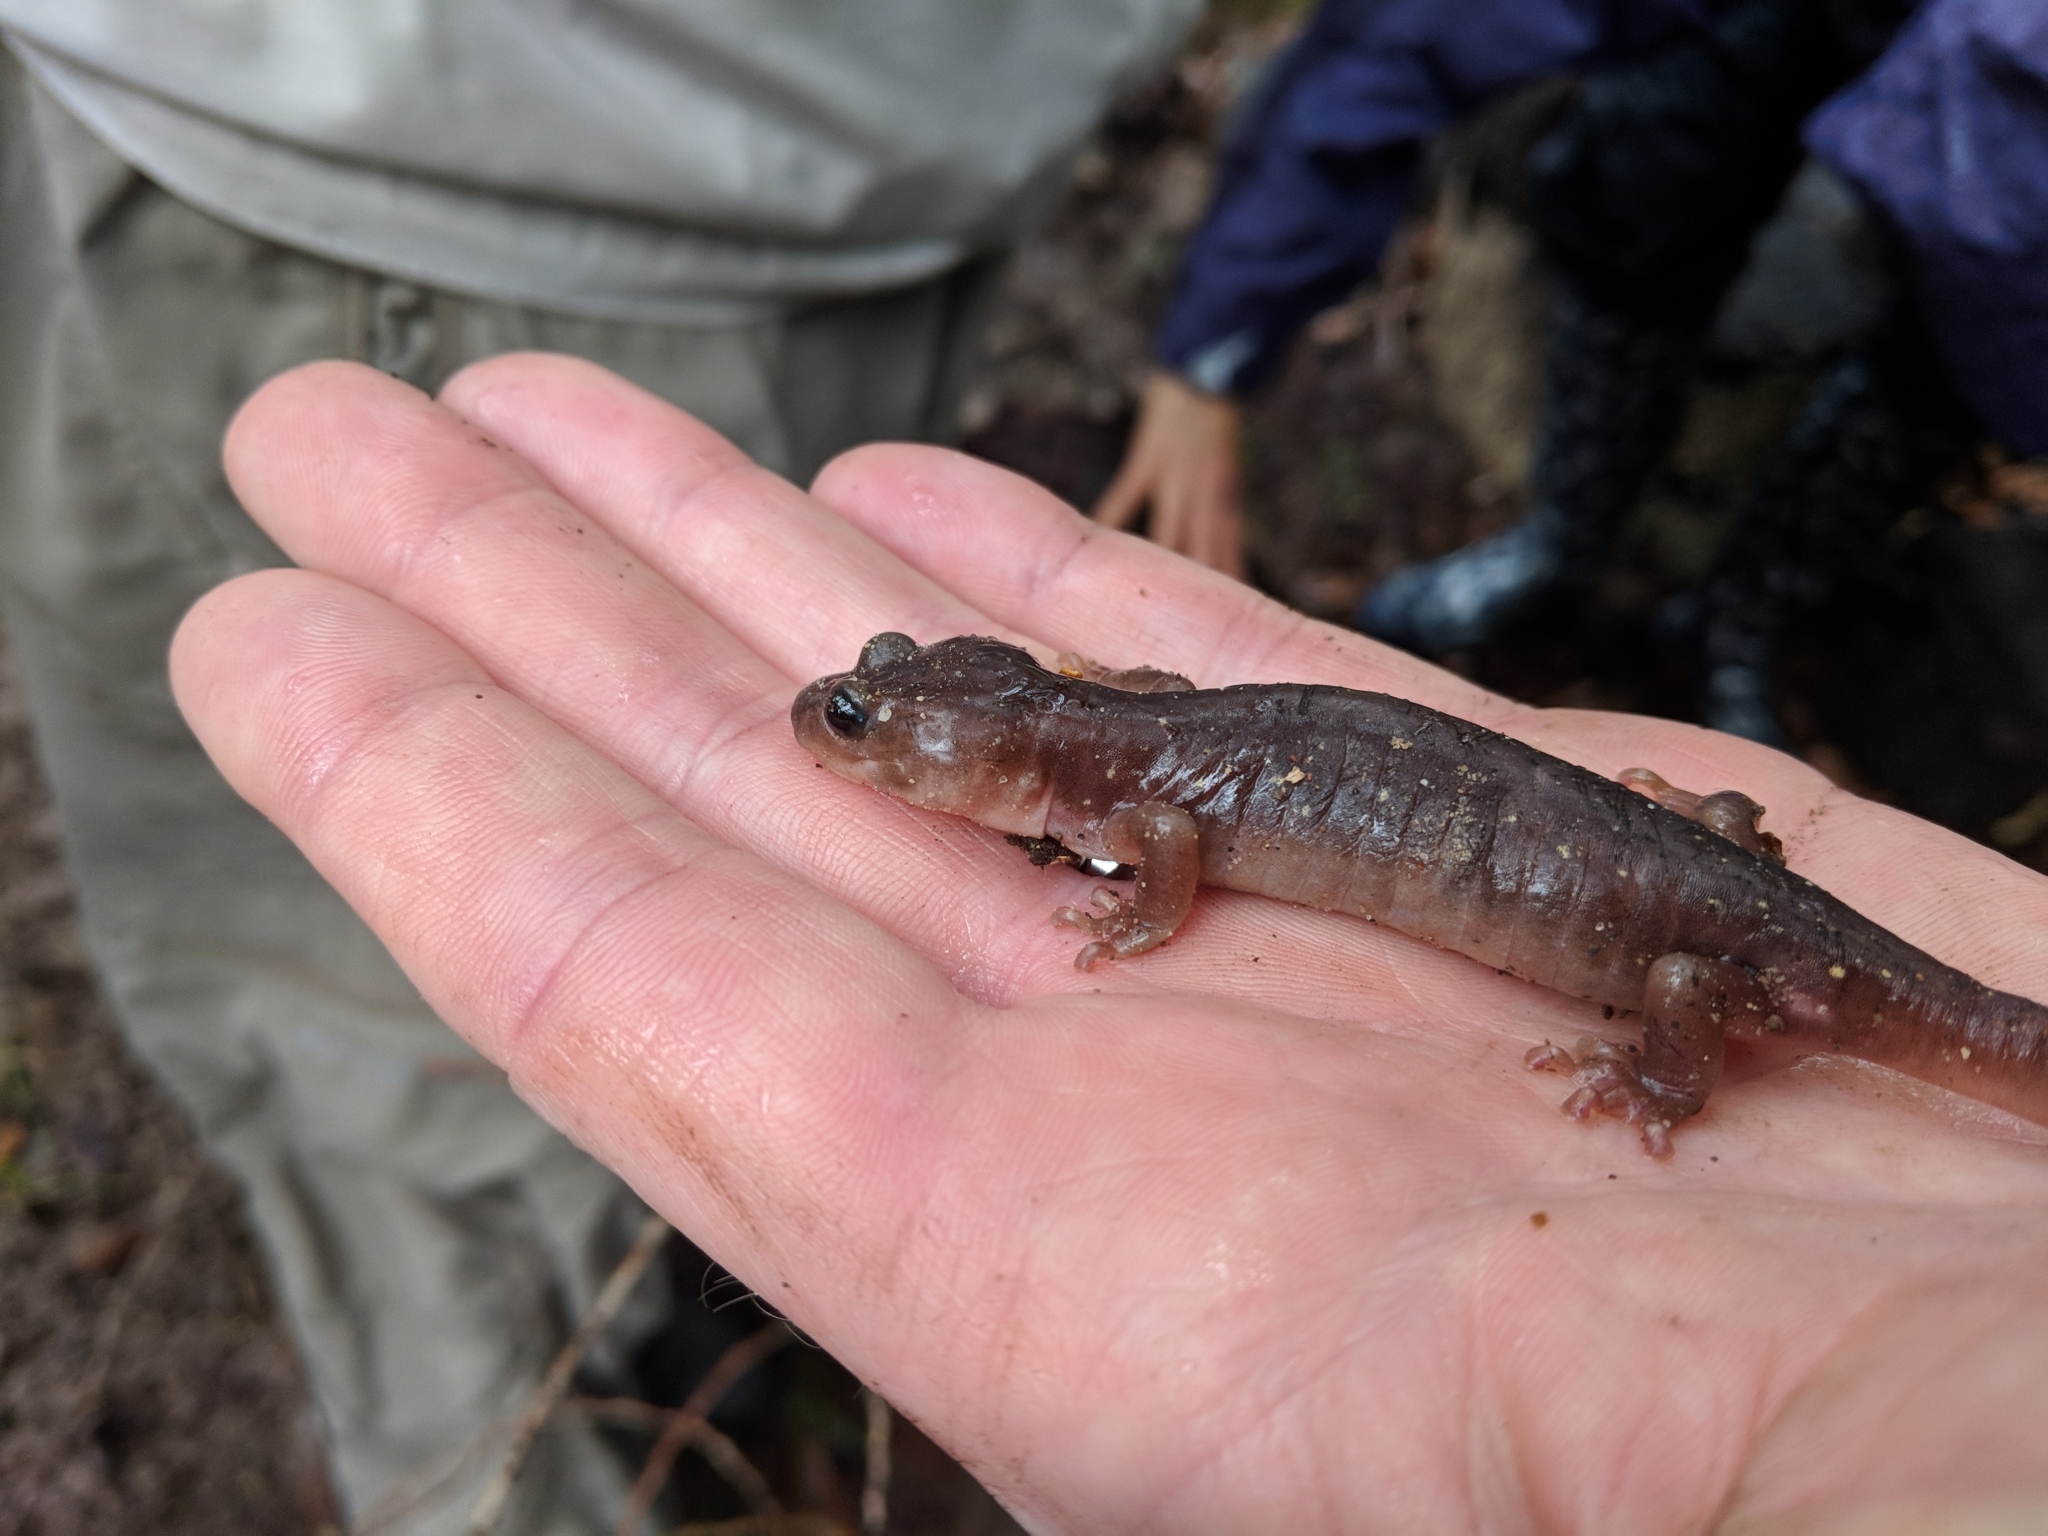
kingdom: Animalia
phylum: Chordata
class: Amphibia
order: Caudata
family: Plethodontidae
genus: Aneides
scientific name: Aneides lugubris
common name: Arboreal salamander
